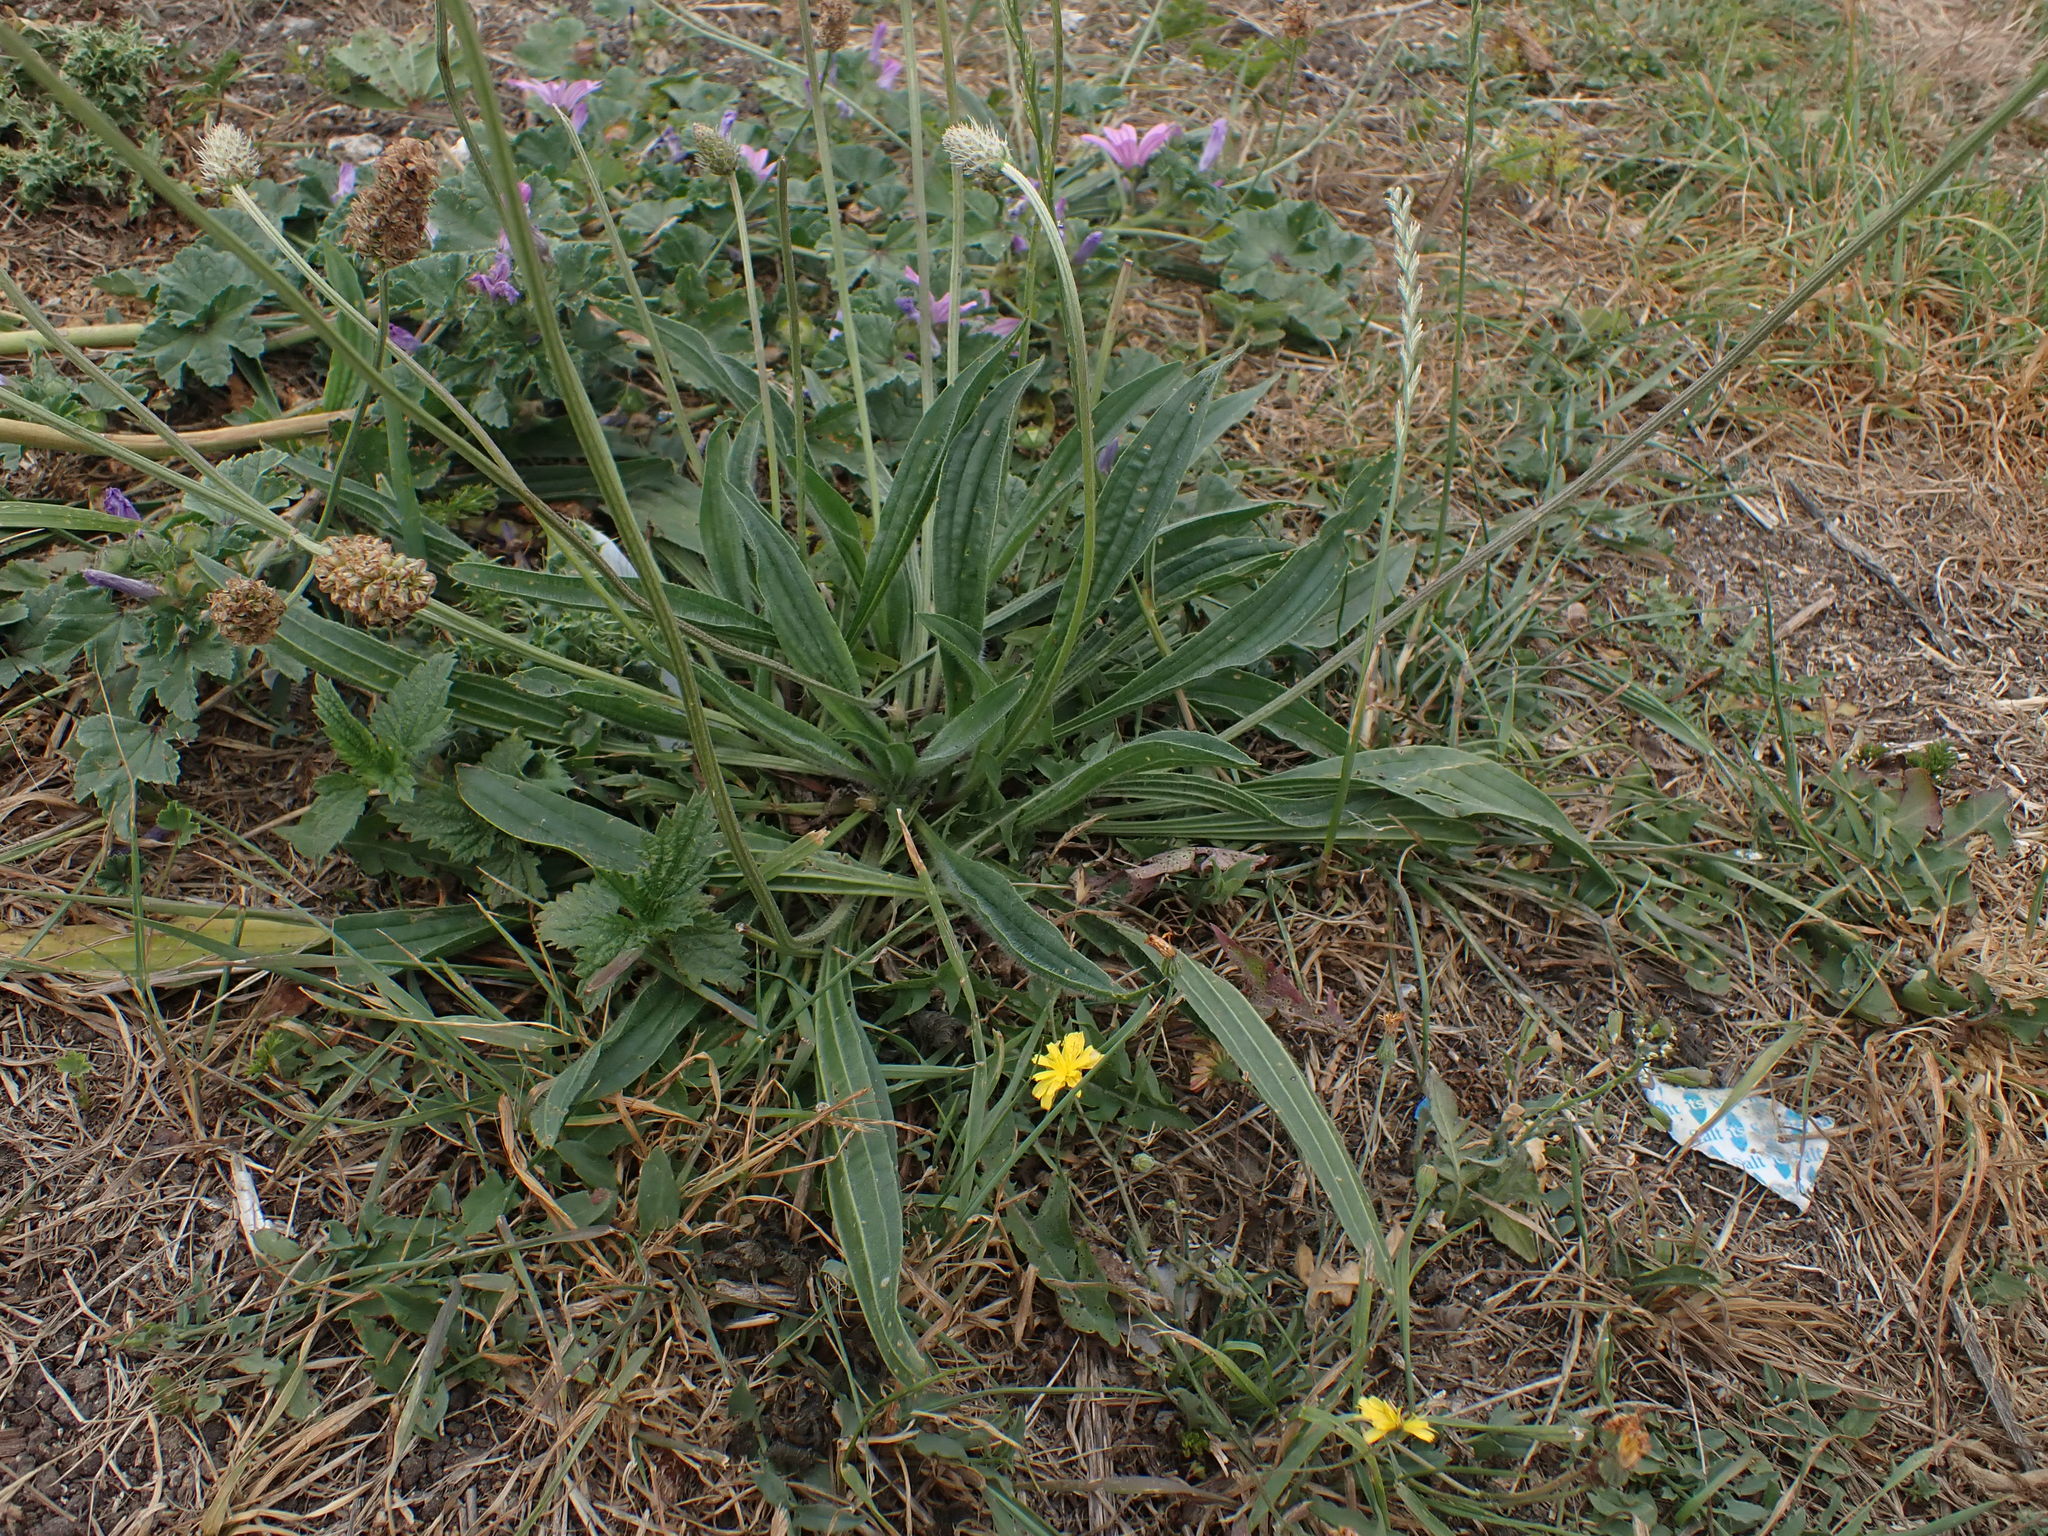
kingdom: Plantae
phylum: Tracheophyta
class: Magnoliopsida
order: Lamiales
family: Plantaginaceae
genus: Plantago
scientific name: Plantago lanceolata
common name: Ribwort plantain
